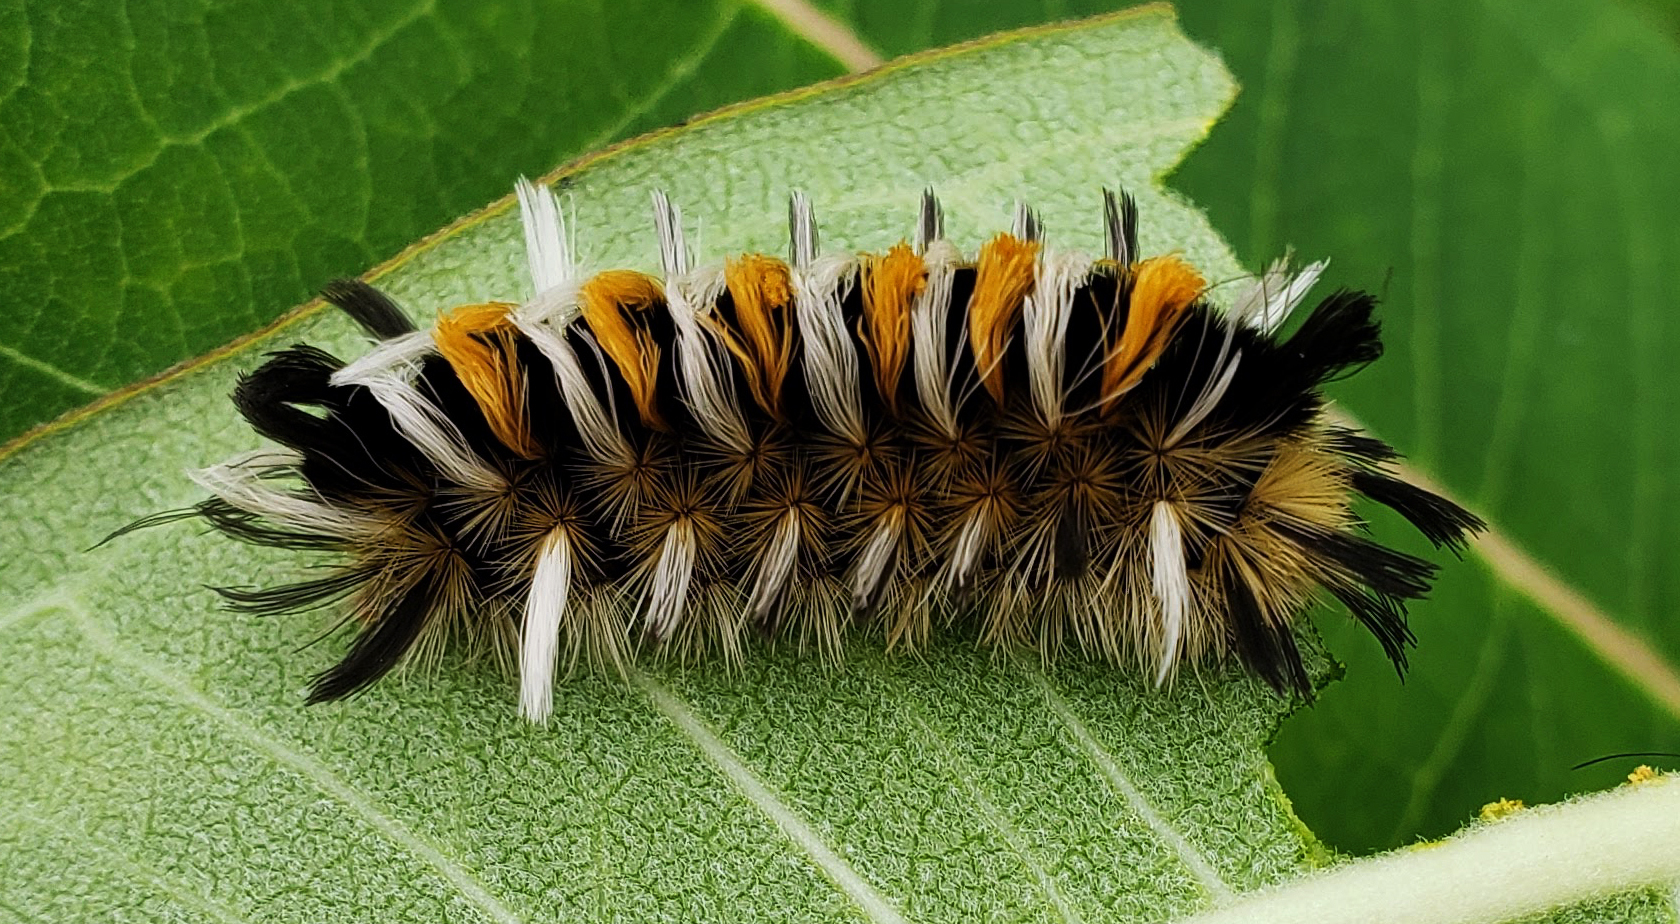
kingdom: Animalia
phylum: Arthropoda
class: Insecta
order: Lepidoptera
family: Erebidae
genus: Euchaetes
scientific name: Euchaetes egle
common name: Milkweed tussock moth
